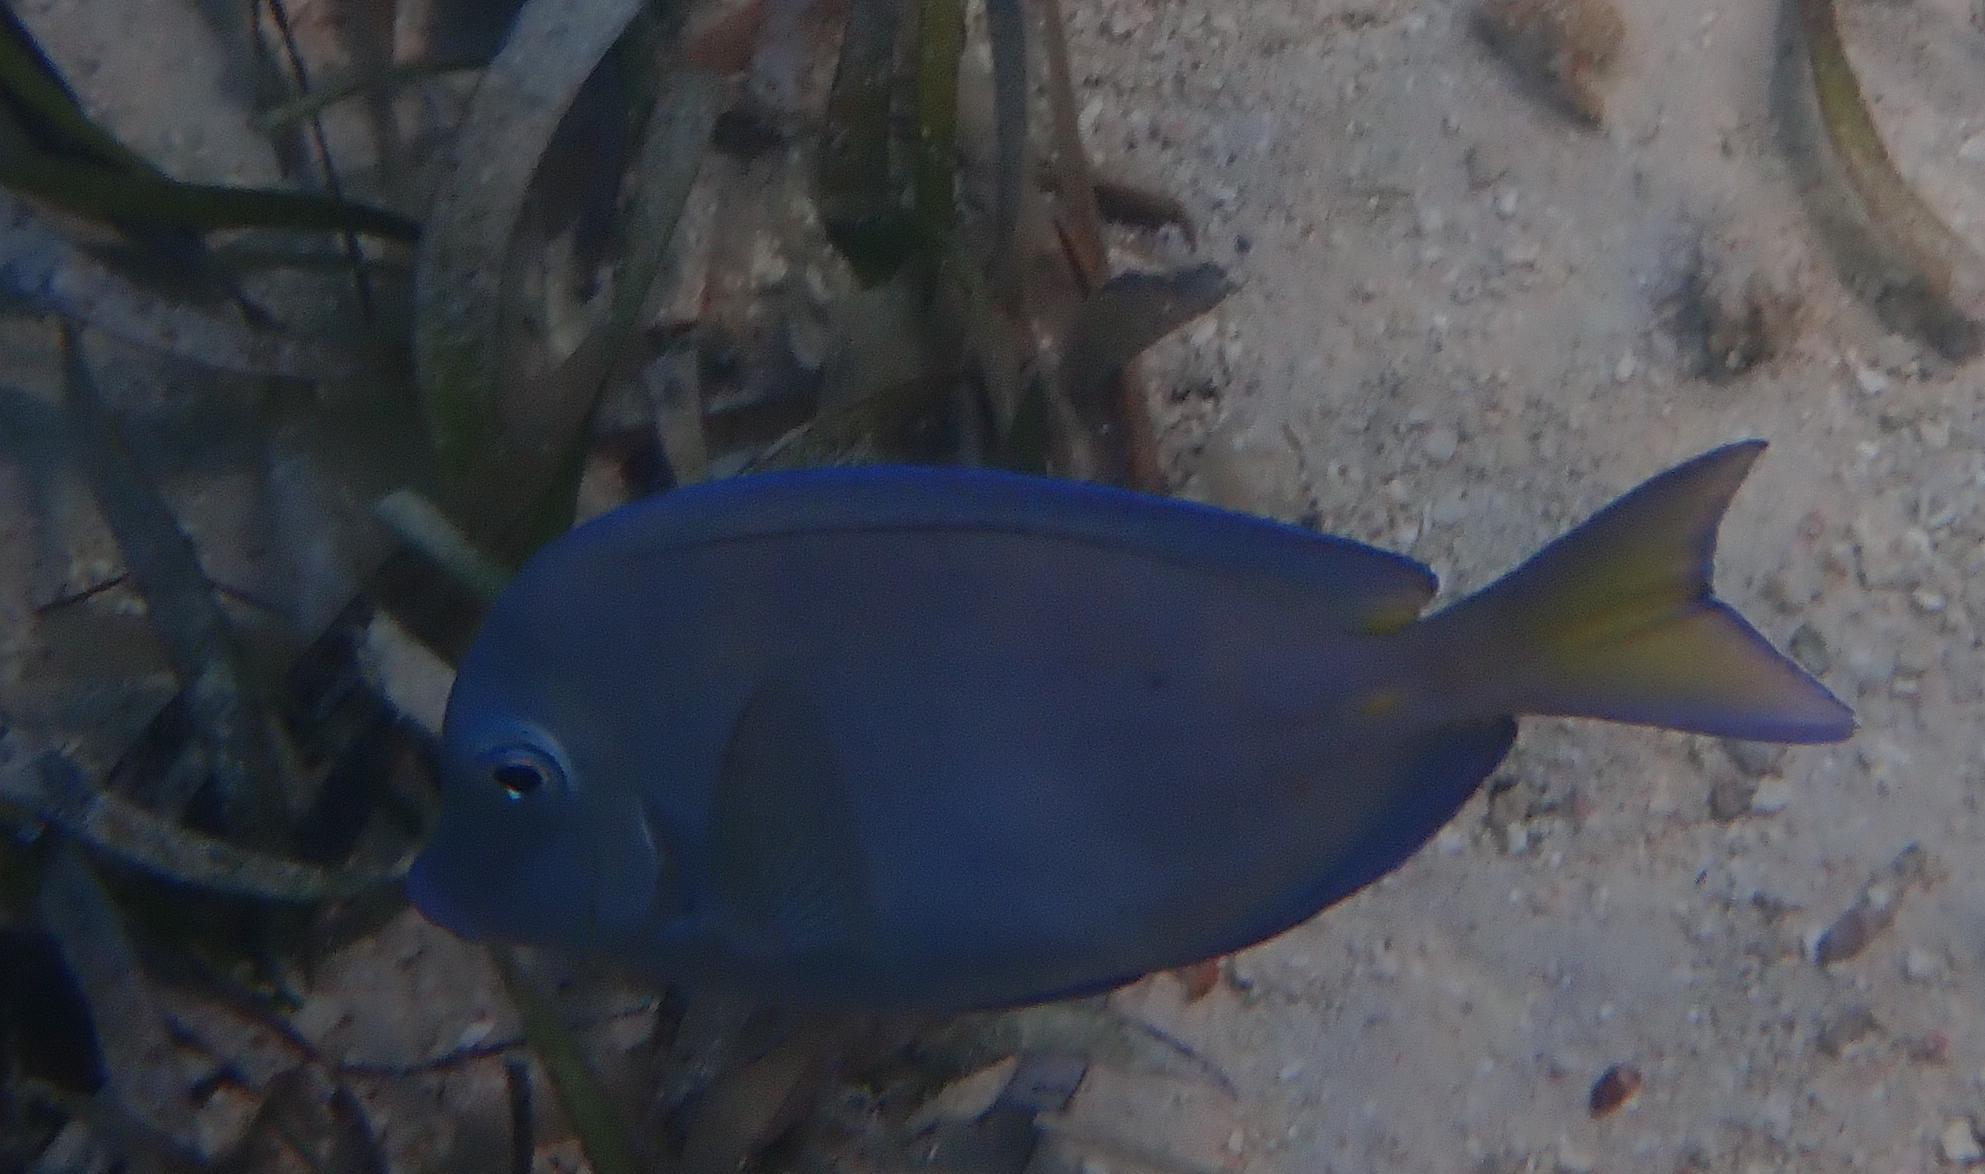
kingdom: Animalia
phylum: Chordata
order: Perciformes
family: Acanthuridae
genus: Acanthurus
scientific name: Acanthurus coeruleus
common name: Blue tang
